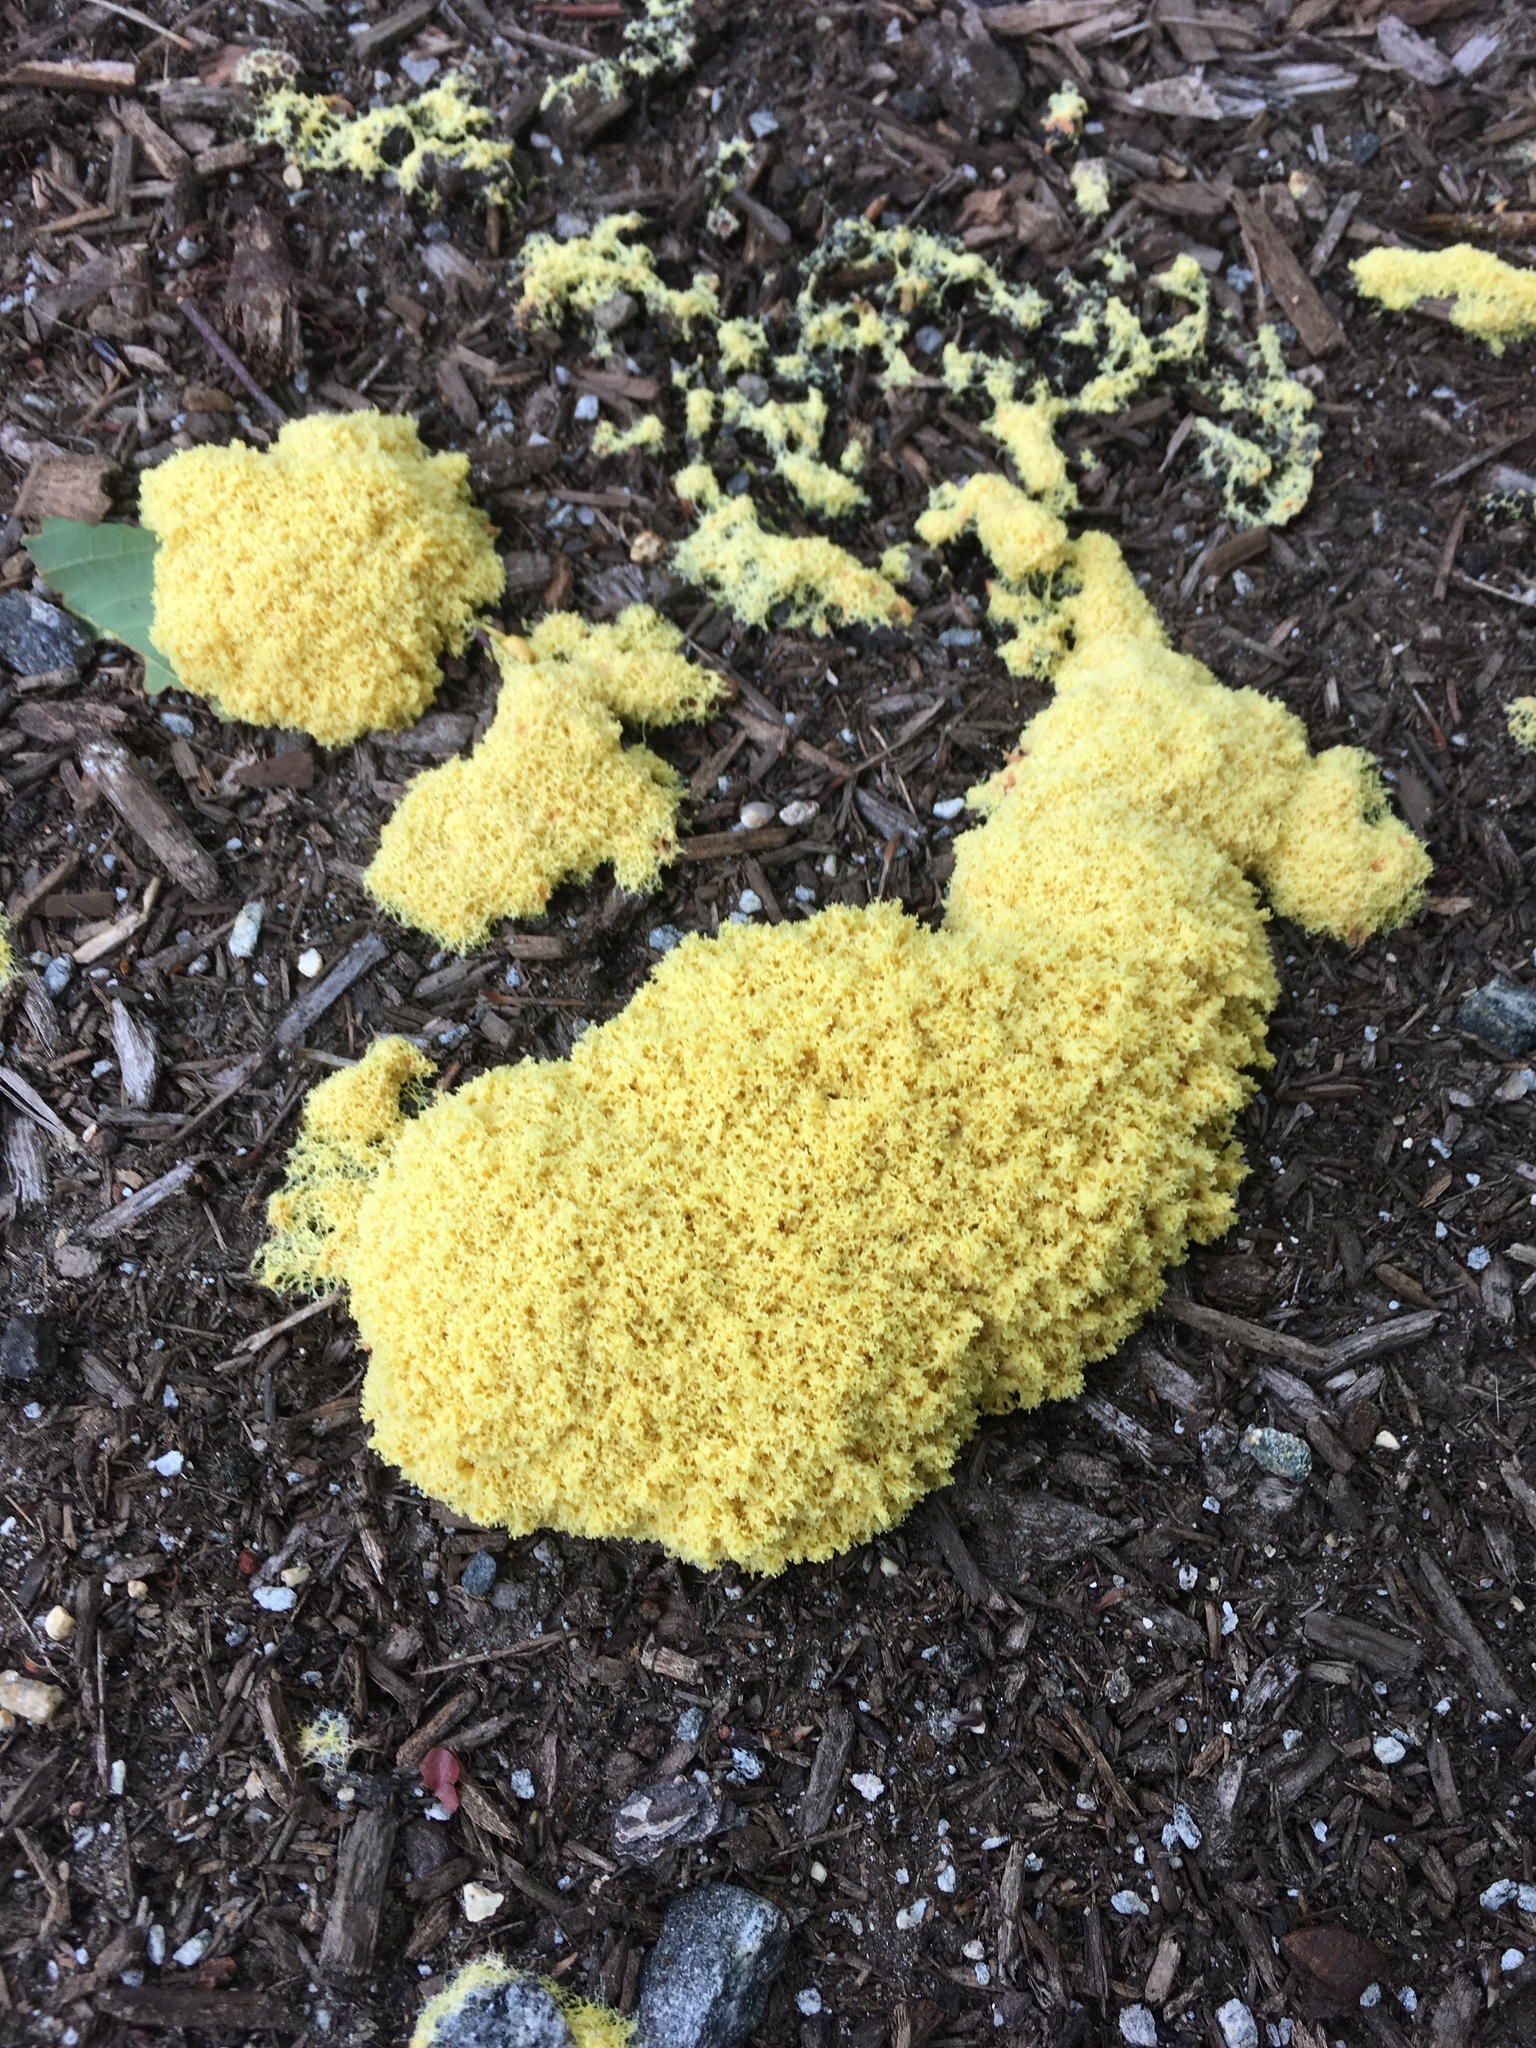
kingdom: Protozoa
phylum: Mycetozoa
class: Myxomycetes
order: Physarales
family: Physaraceae
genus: Fuligo
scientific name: Fuligo septica
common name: Dog vomit slime mold
